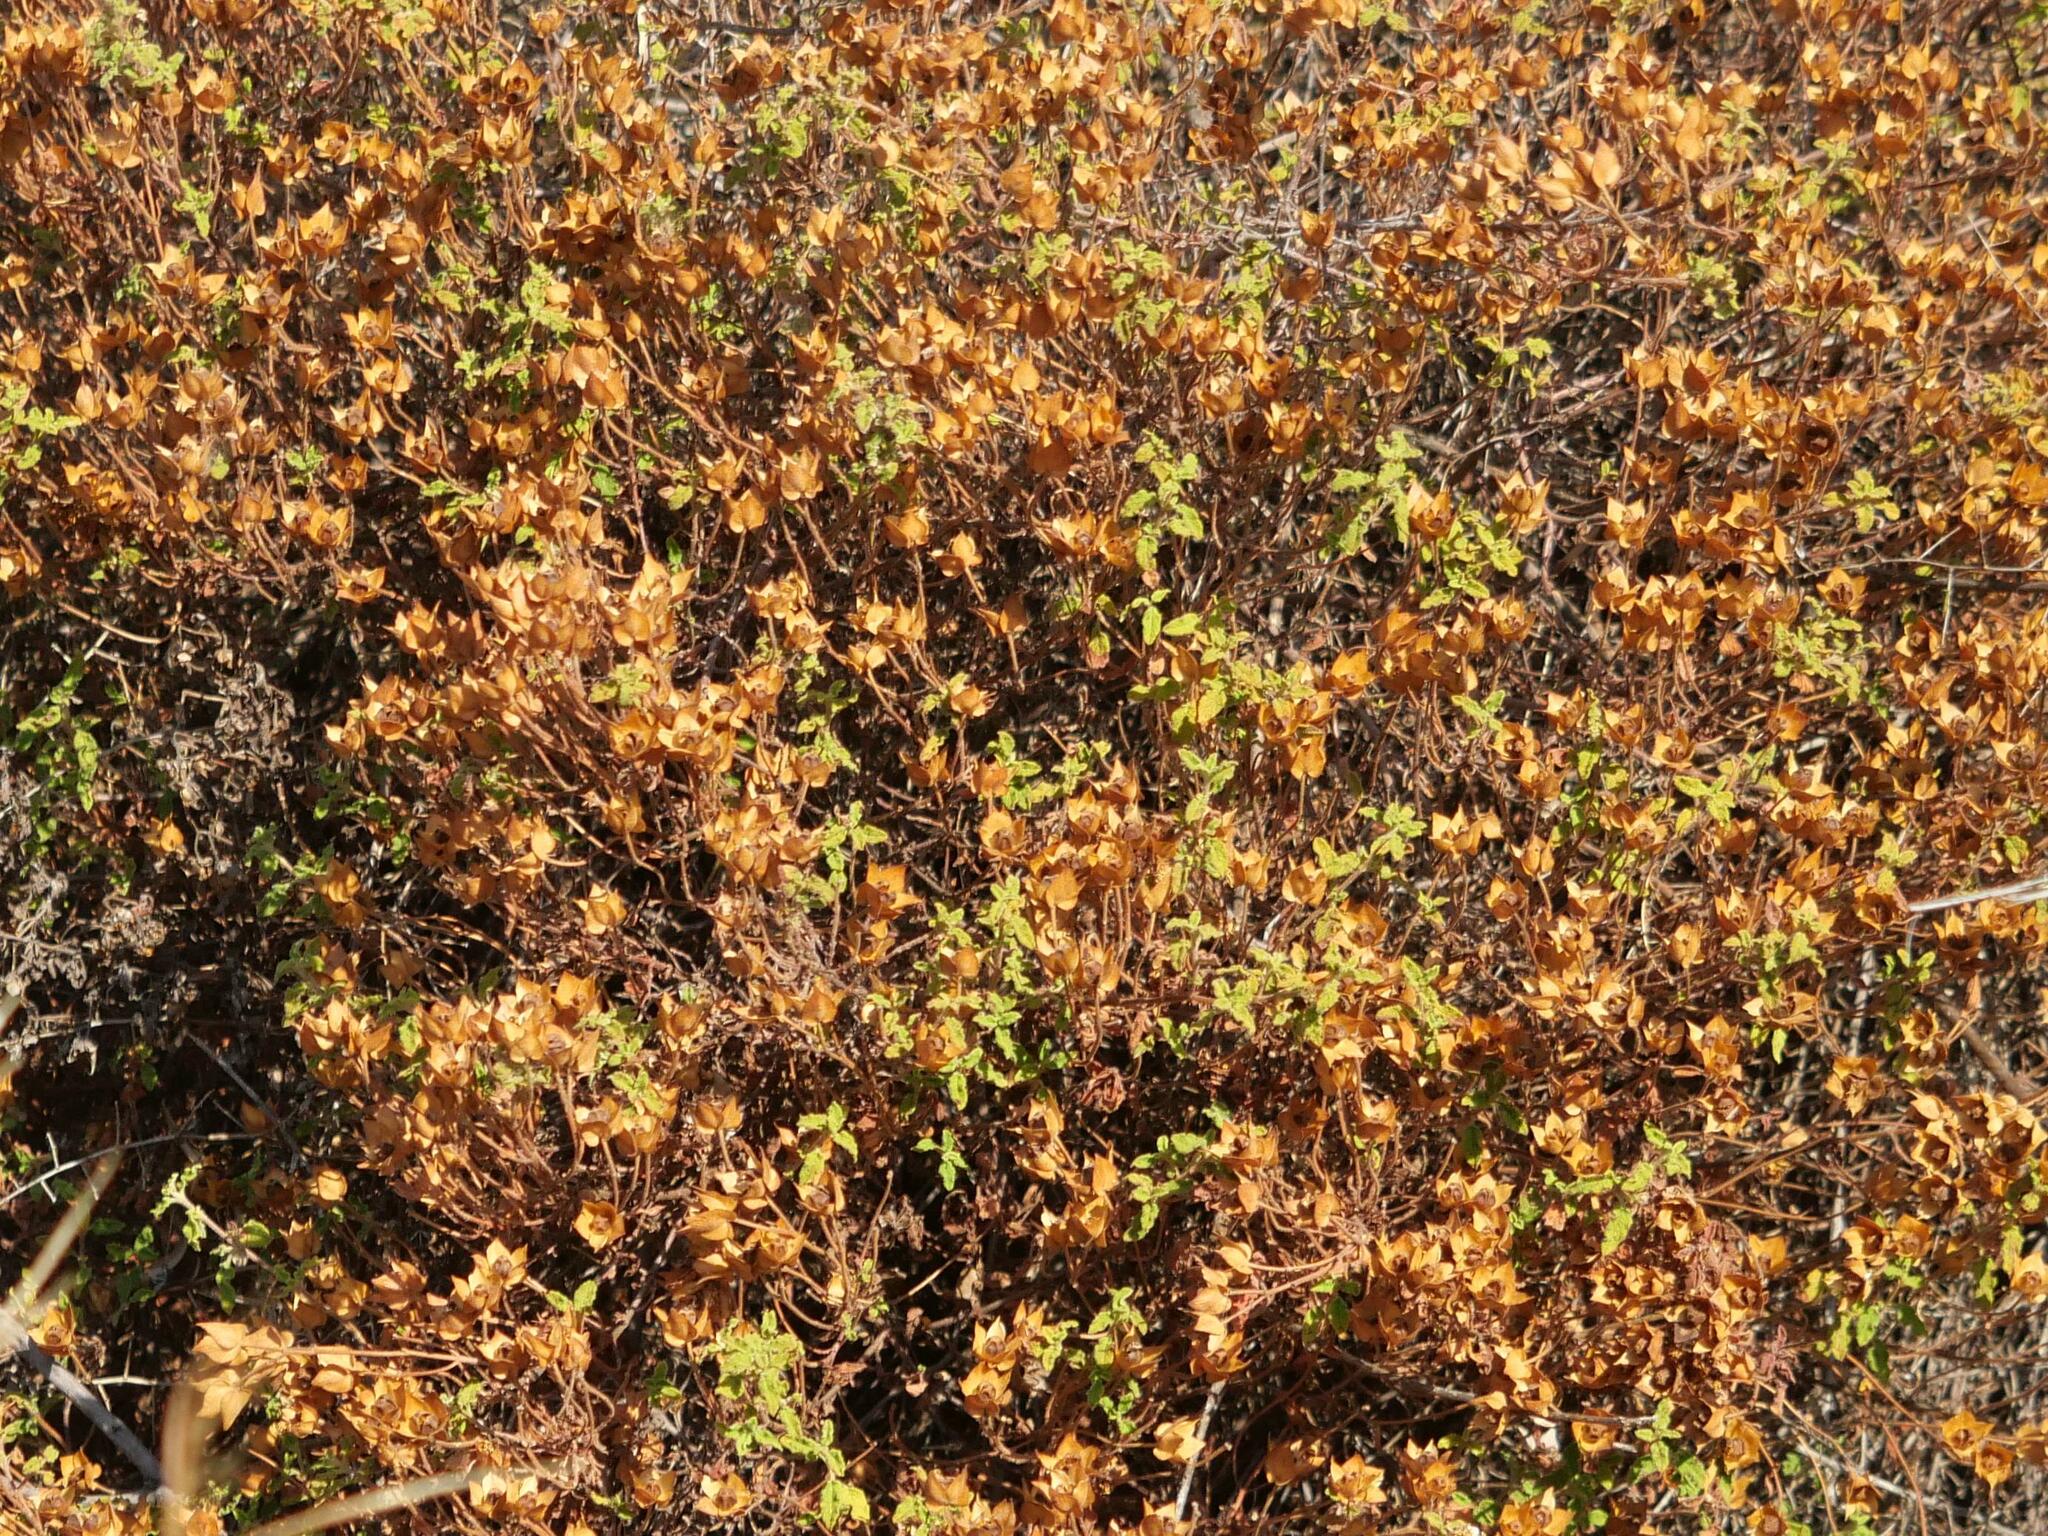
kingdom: Plantae
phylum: Tracheophyta
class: Magnoliopsida
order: Malvales
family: Cistaceae
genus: Cistus
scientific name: Cistus salviifolius
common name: Salvia cistus
